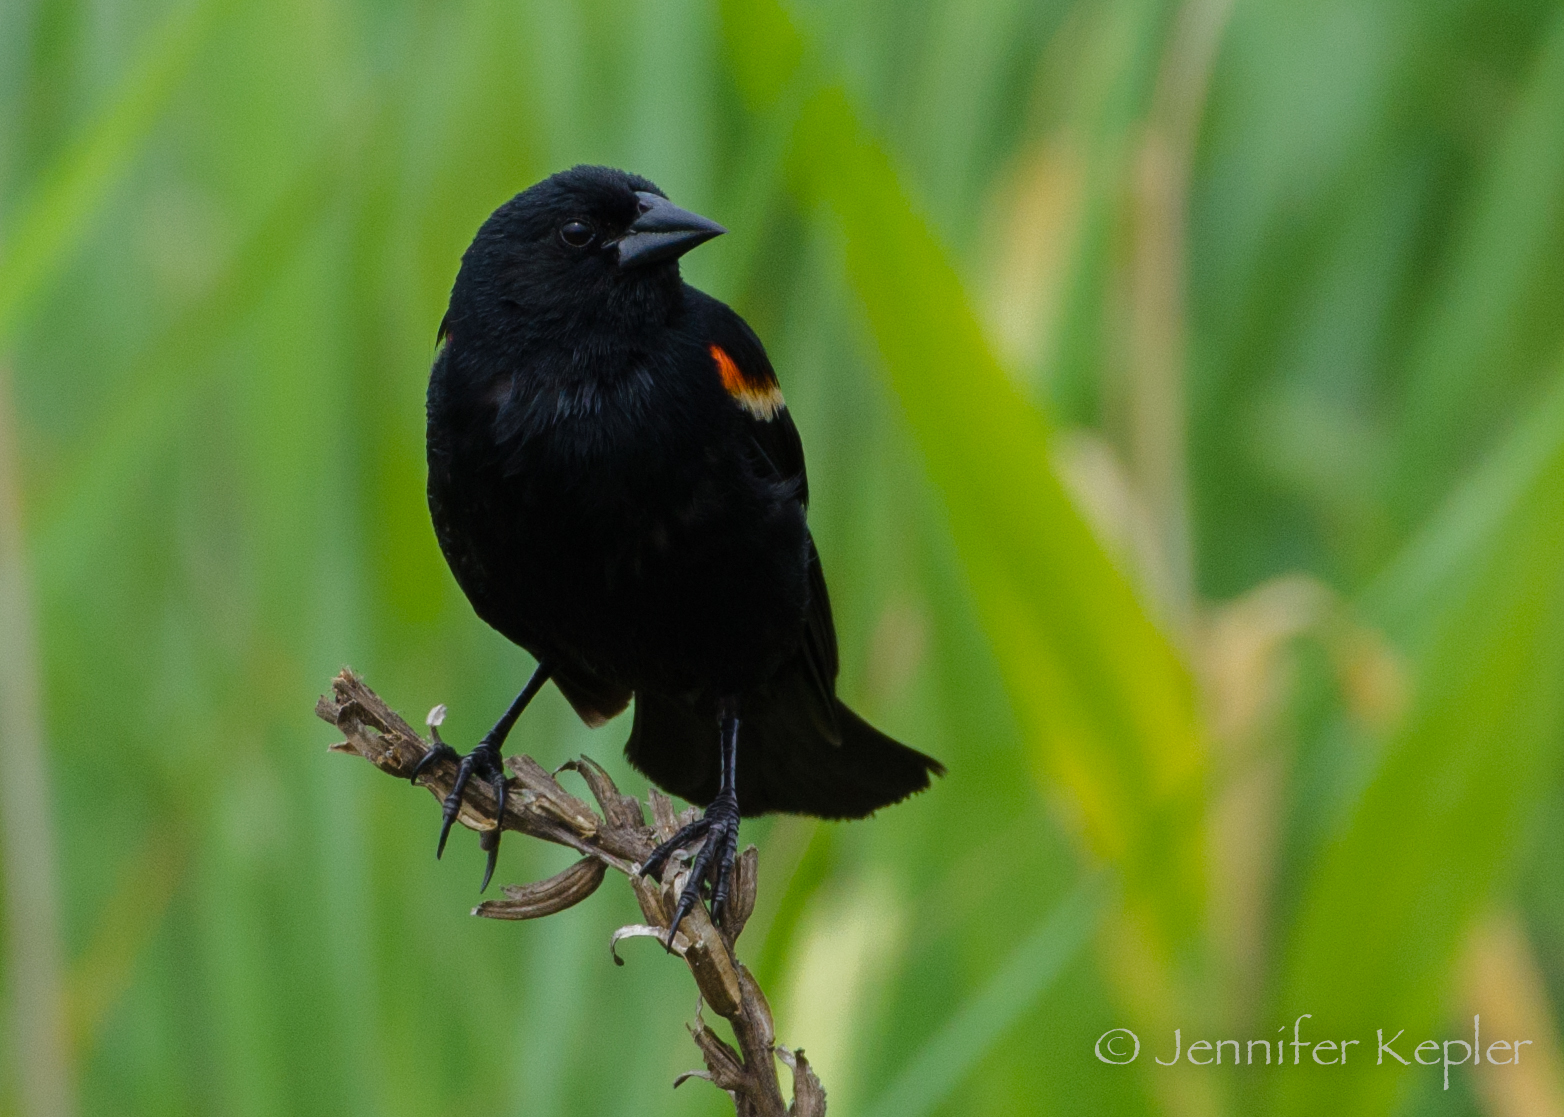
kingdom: Animalia
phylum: Chordata
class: Aves
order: Passeriformes
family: Icteridae
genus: Agelaius
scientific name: Agelaius phoeniceus
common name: Red-winged blackbird
